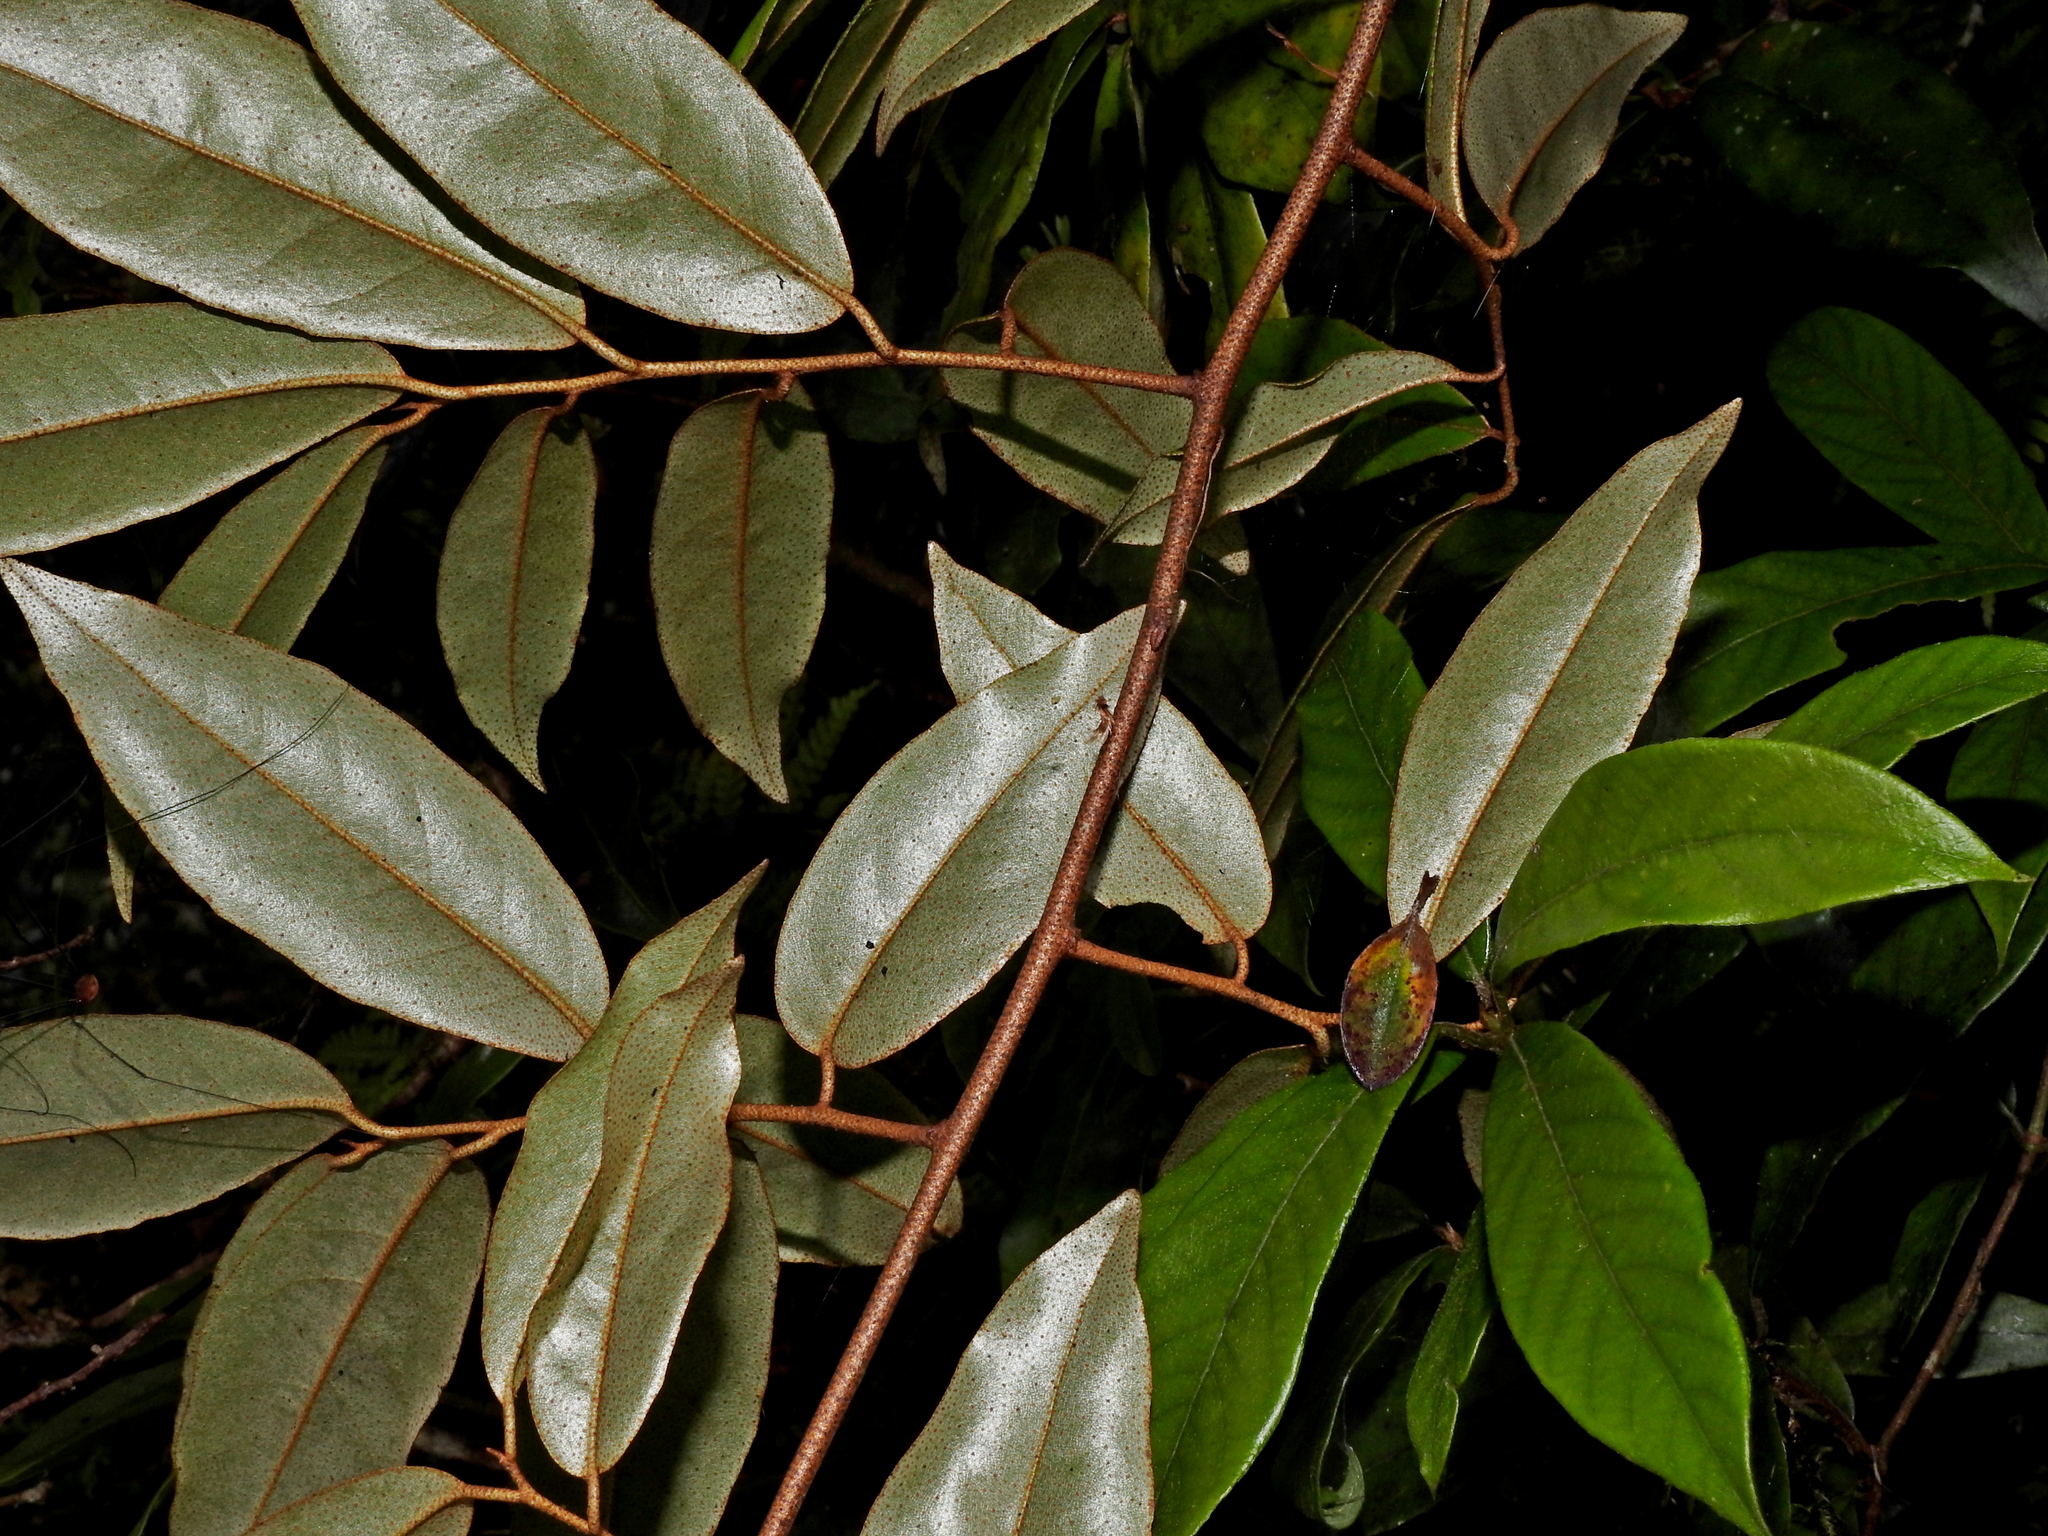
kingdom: Plantae
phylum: Tracheophyta
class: Magnoliopsida
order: Rosales
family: Elaeagnaceae
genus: Elaeagnus
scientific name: Elaeagnus glabra
